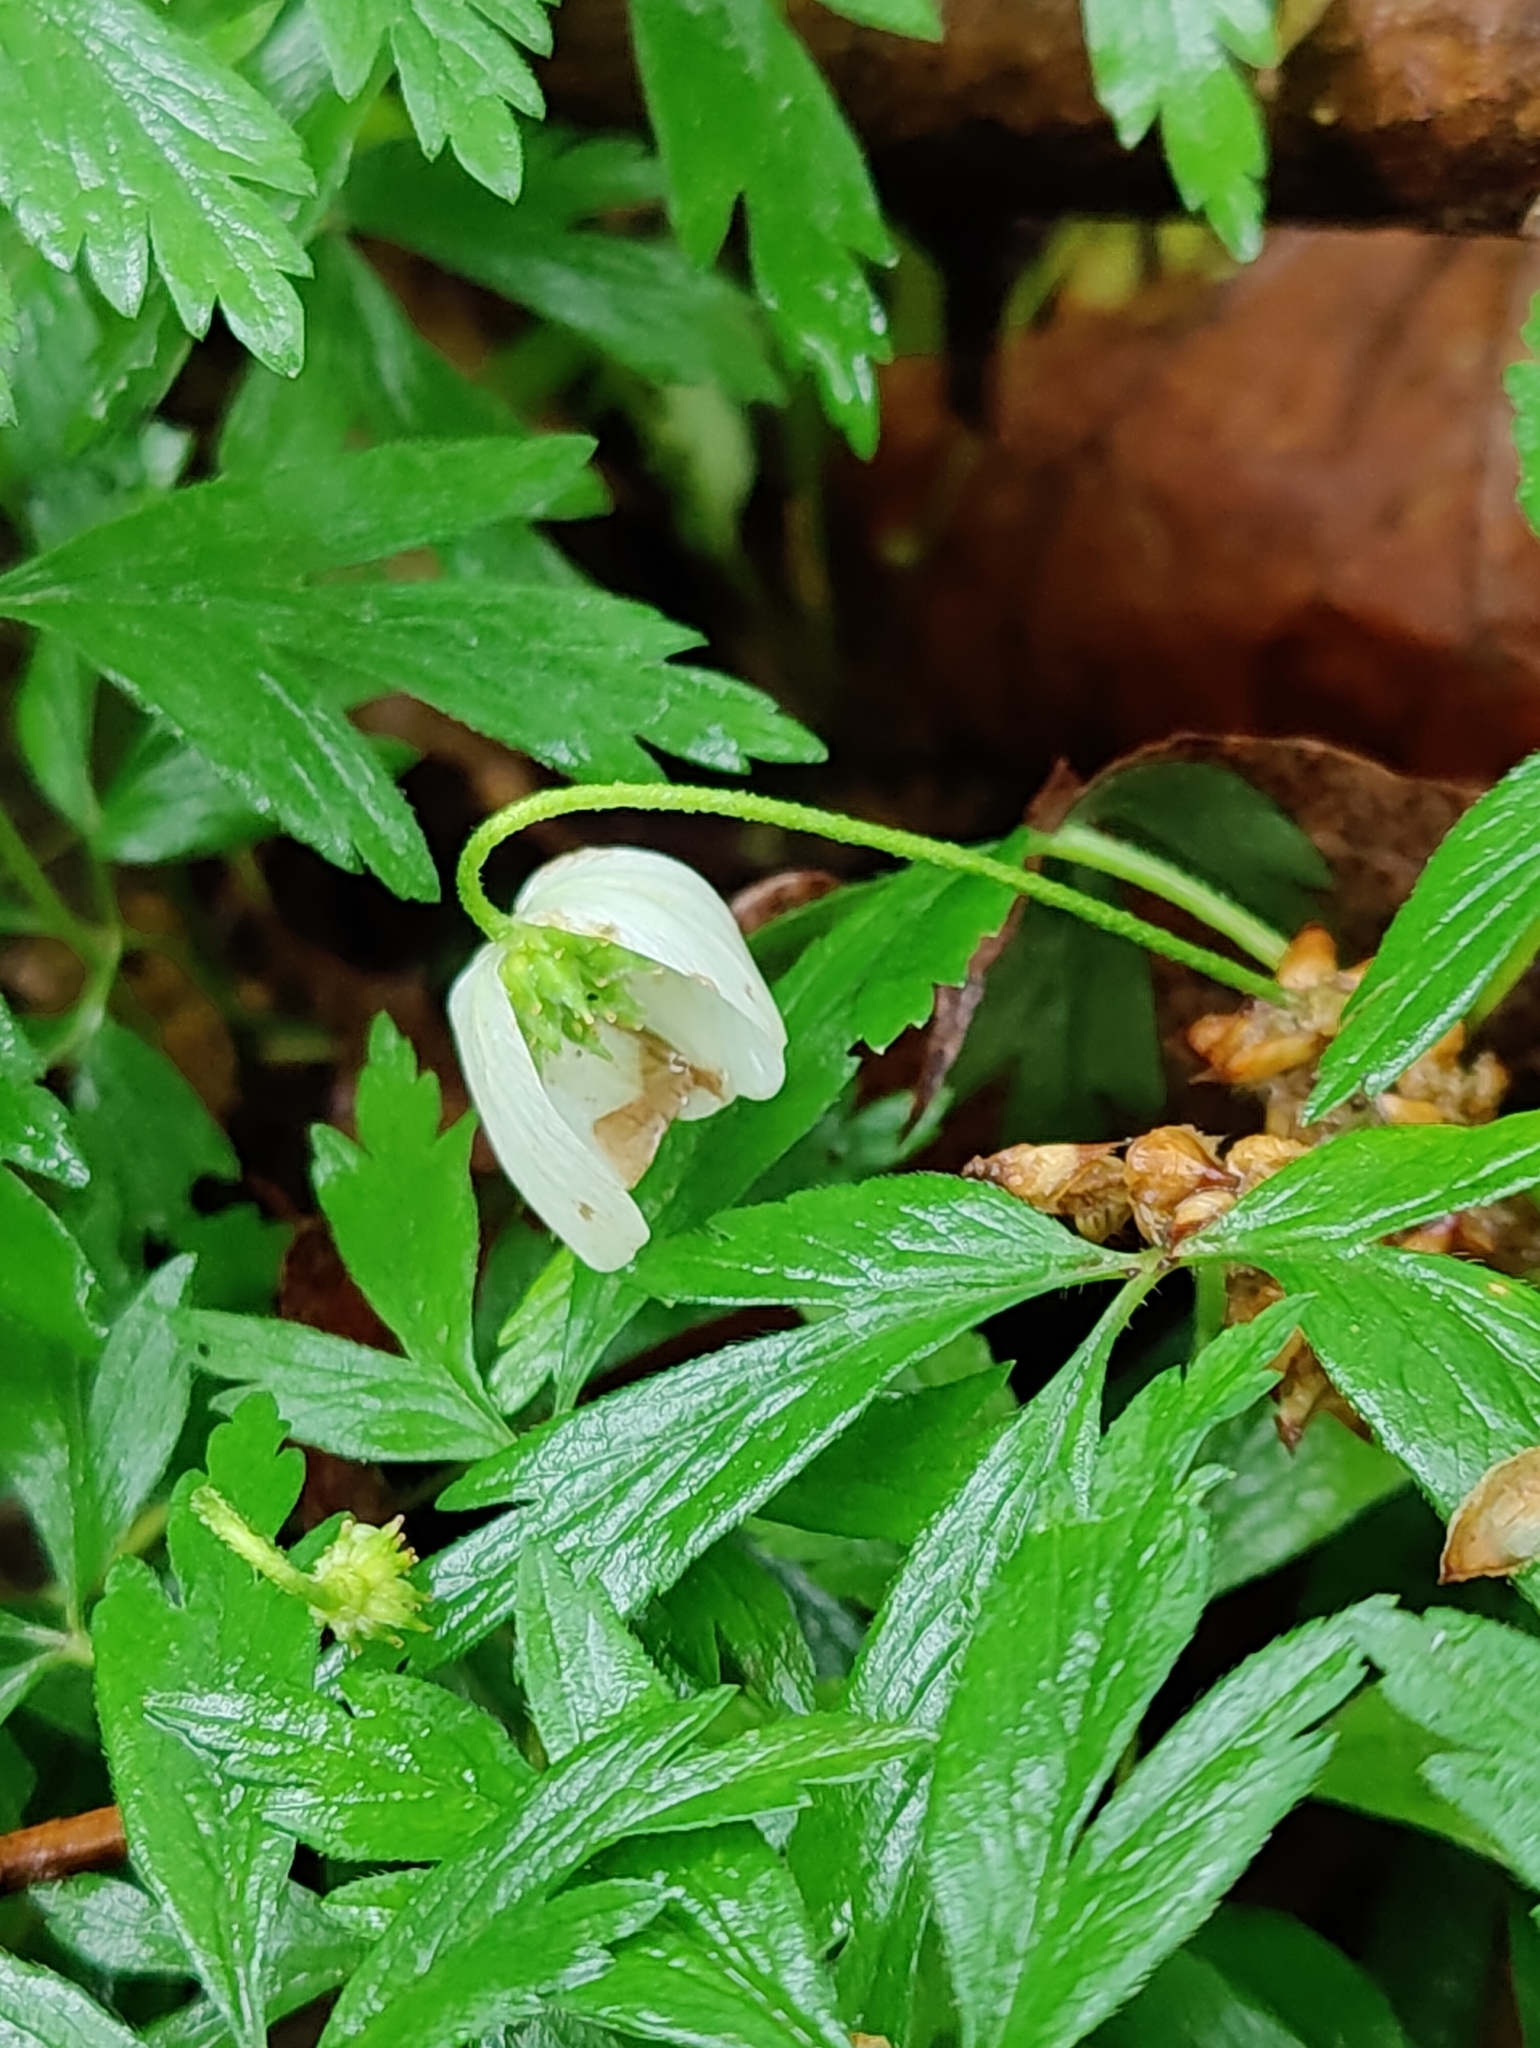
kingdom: Plantae
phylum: Tracheophyta
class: Magnoliopsida
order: Ranunculales
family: Ranunculaceae
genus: Anemone
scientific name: Anemone nemorosa
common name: Wood anemone
